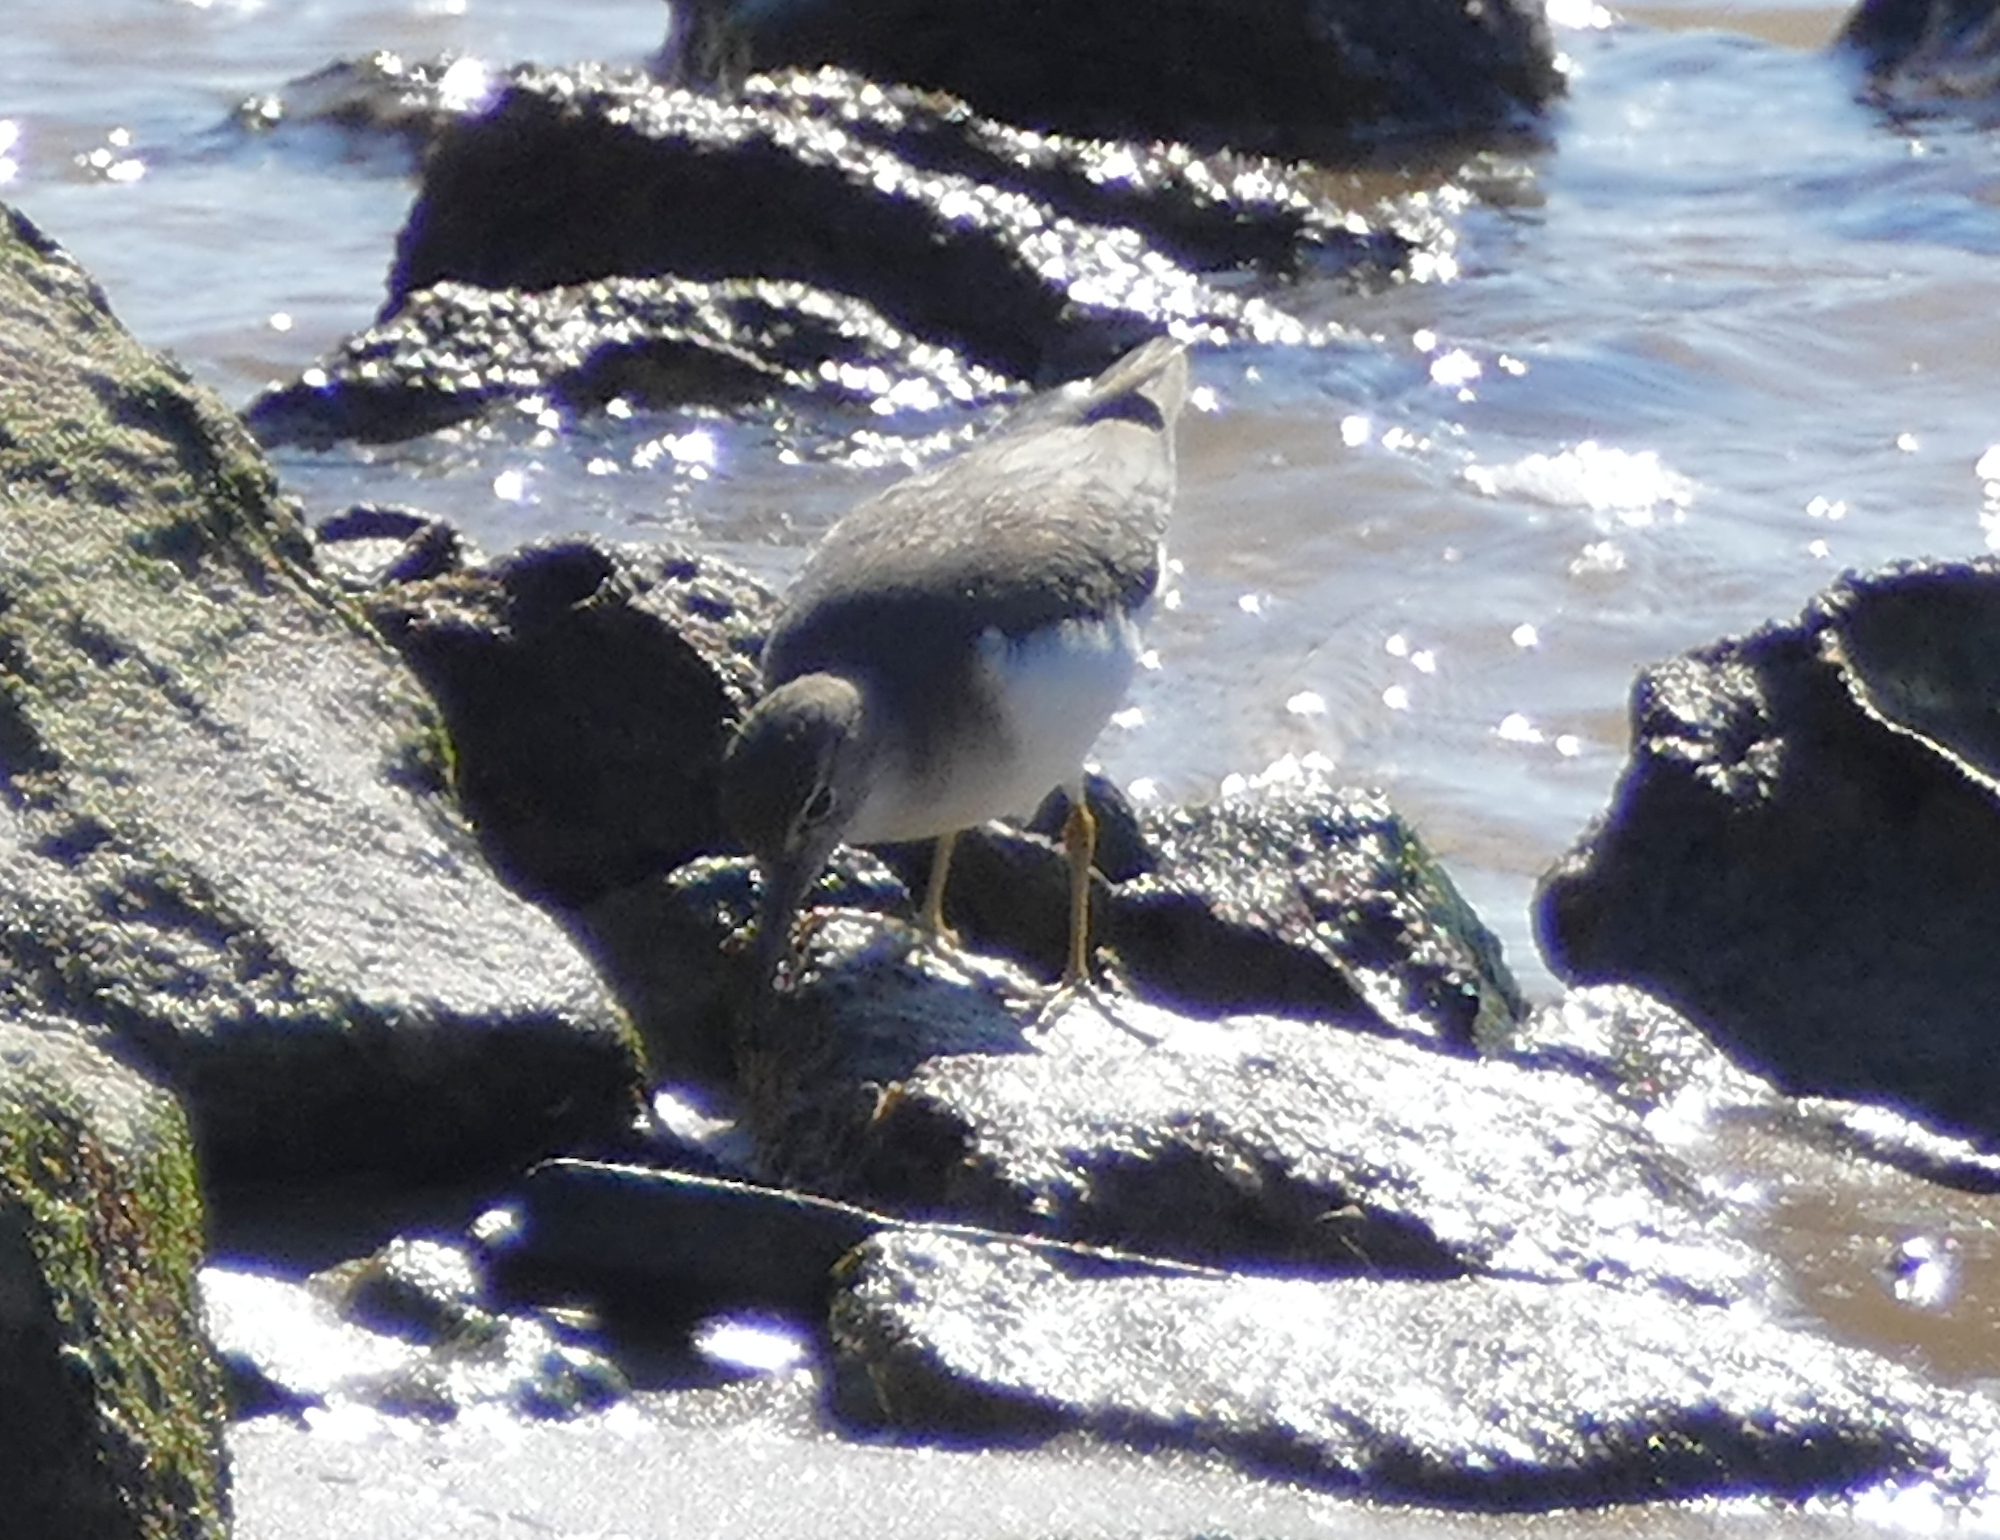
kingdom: Animalia
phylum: Chordata
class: Aves
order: Charadriiformes
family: Scolopacidae
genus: Actitis
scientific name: Actitis macularius
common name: Spotted sandpiper
